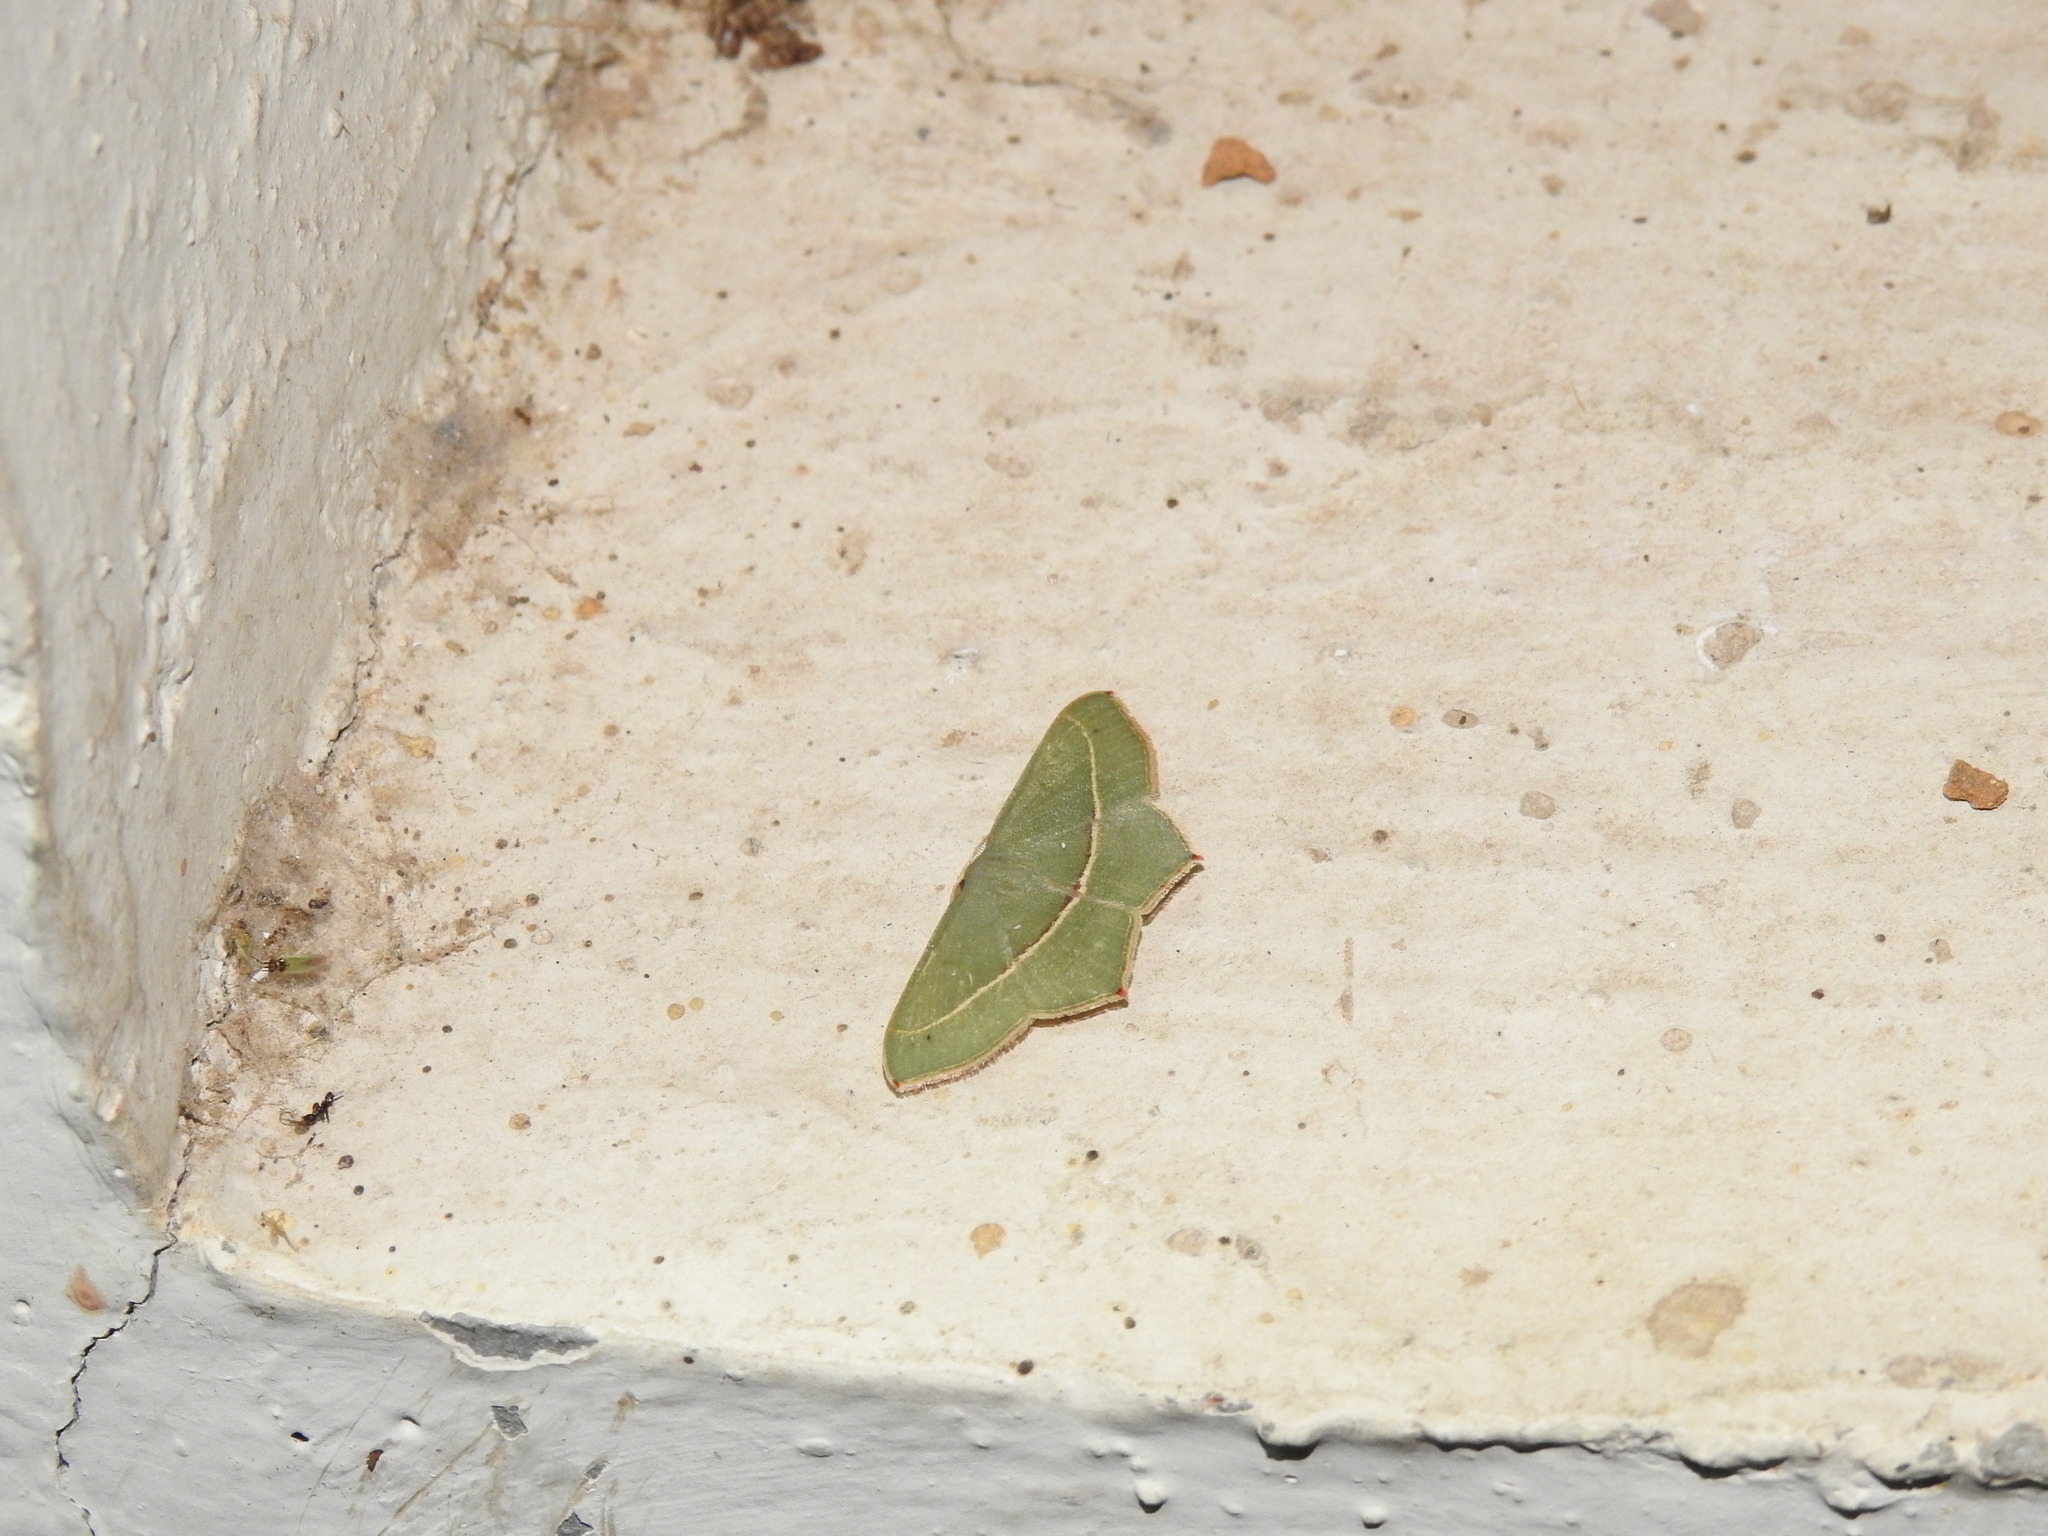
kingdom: Animalia
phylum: Arthropoda
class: Insecta
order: Lepidoptera
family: Geometridae
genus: Traminda
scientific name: Traminda mundissima
